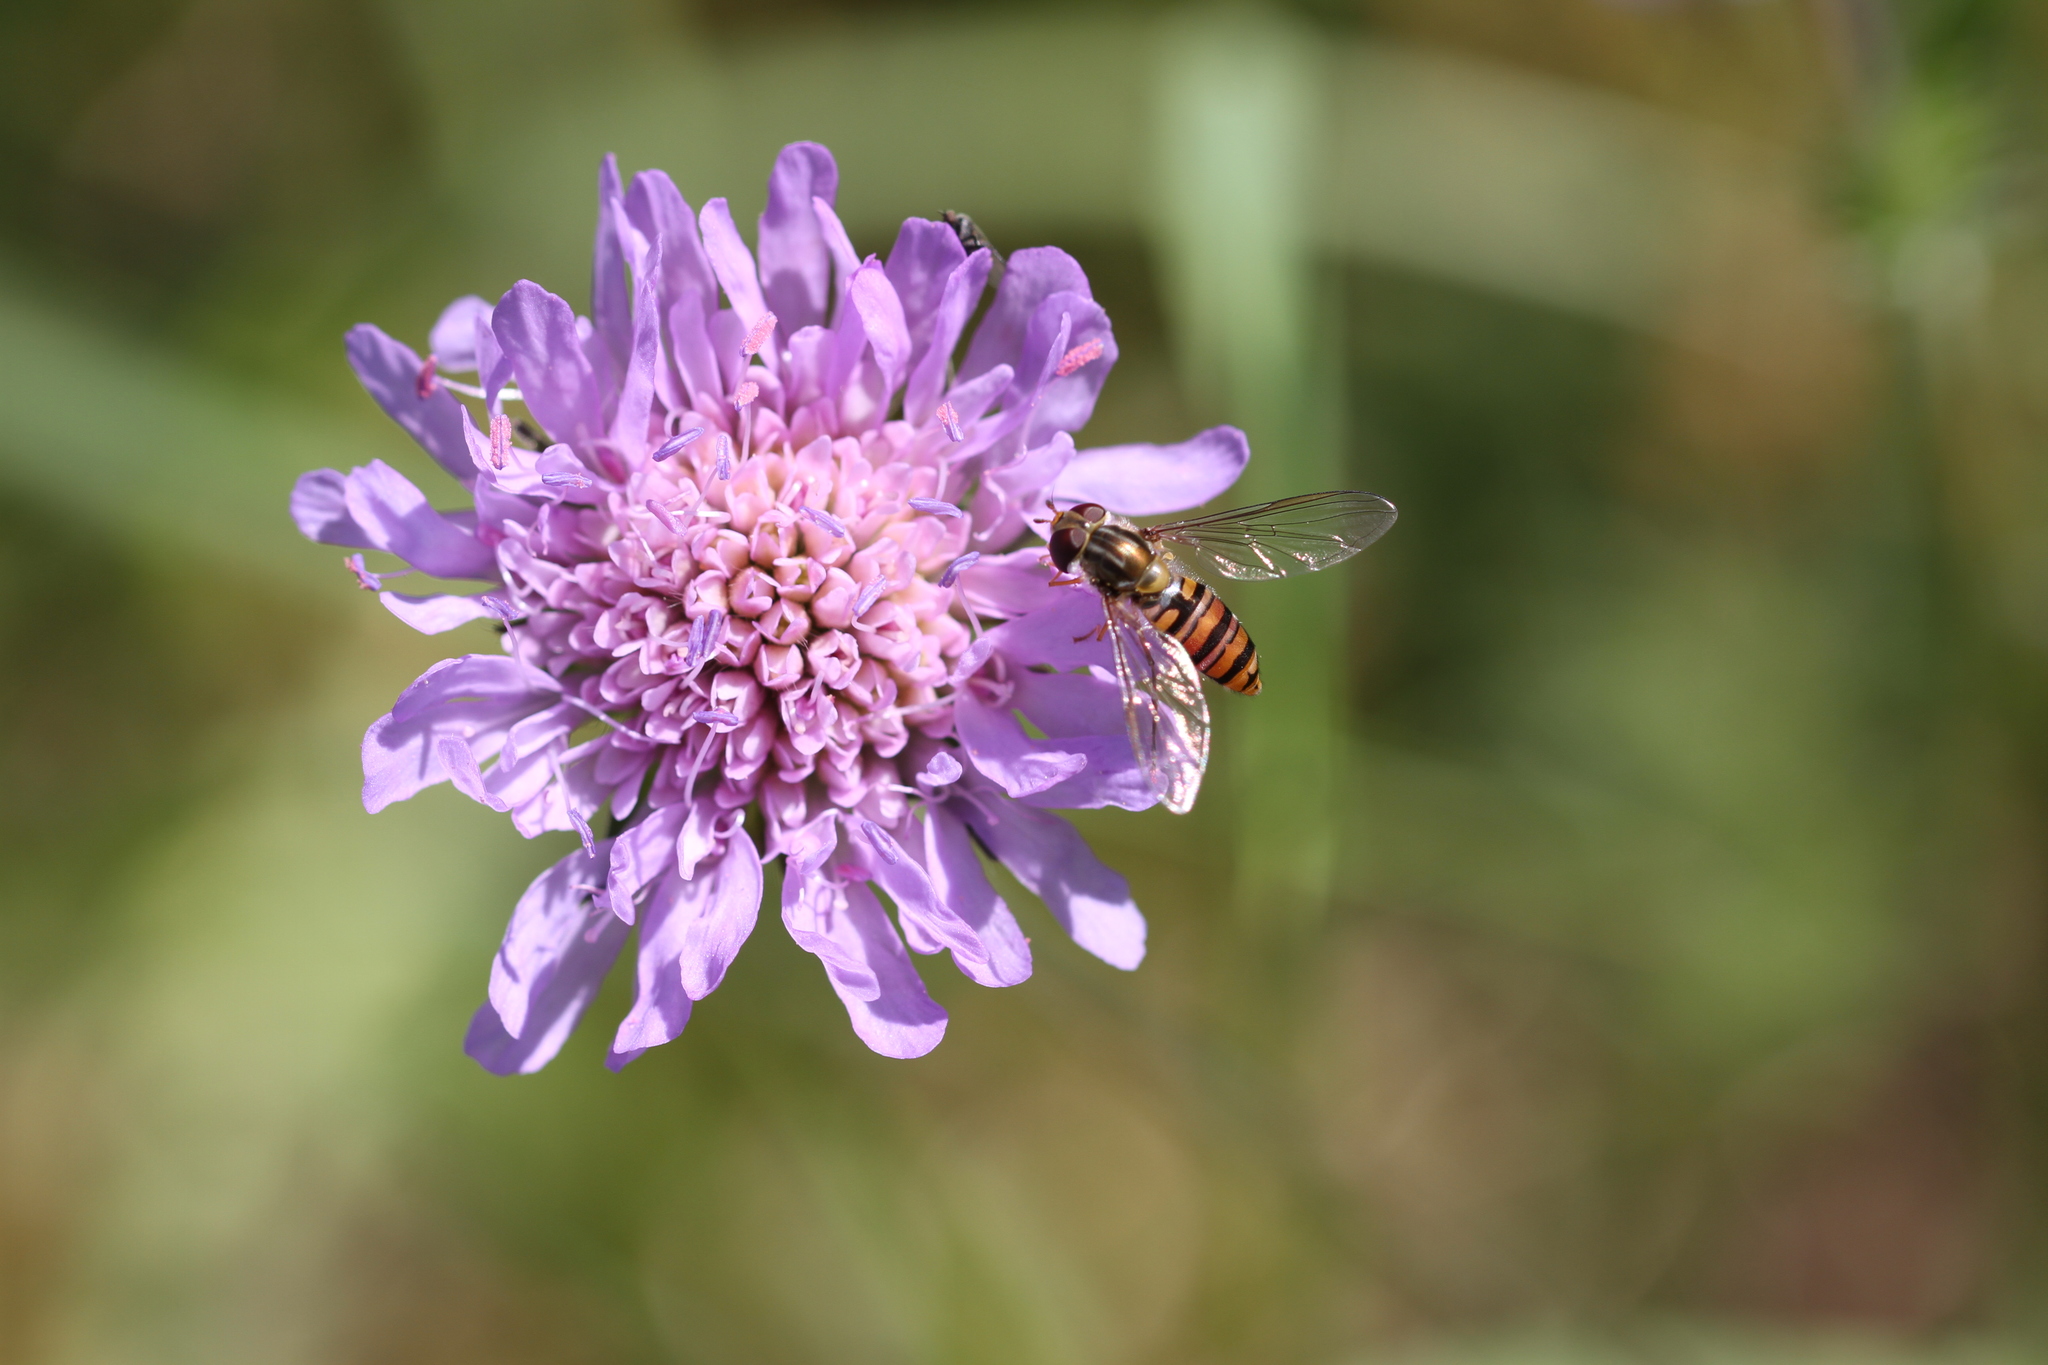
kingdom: Animalia
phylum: Arthropoda
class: Insecta
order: Diptera
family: Syrphidae
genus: Episyrphus
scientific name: Episyrphus balteatus
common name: Marmalade hoverfly
